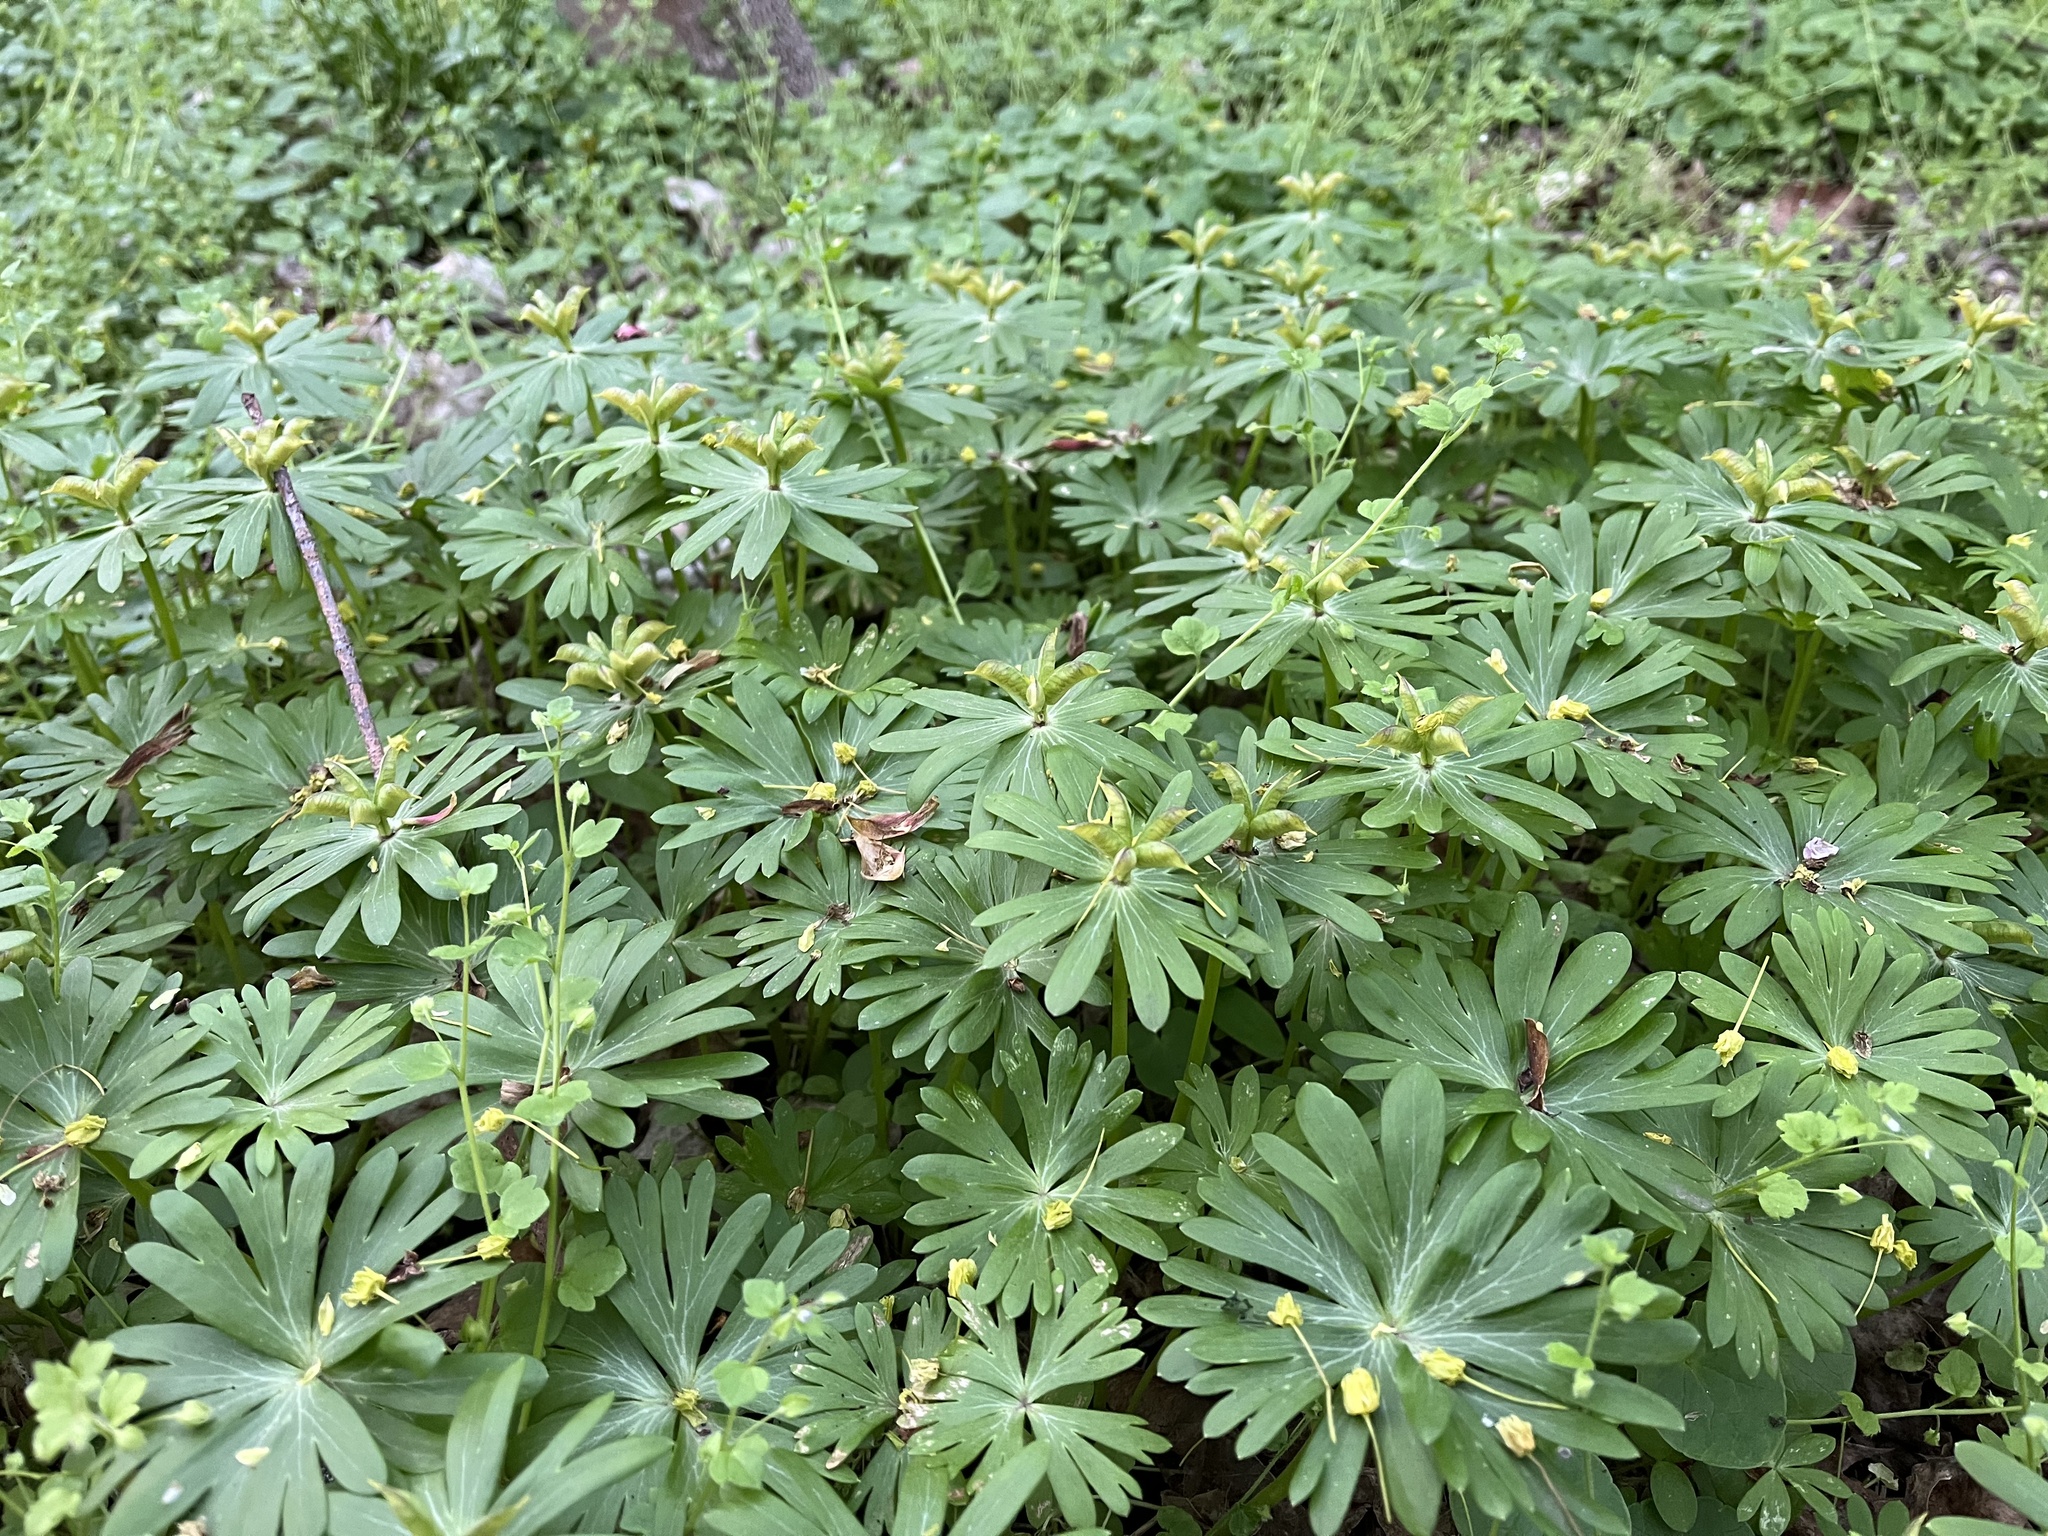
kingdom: Plantae
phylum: Tracheophyta
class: Magnoliopsida
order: Ranunculales
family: Ranunculaceae
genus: Eranthis
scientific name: Eranthis hyemalis
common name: Winter aconite
